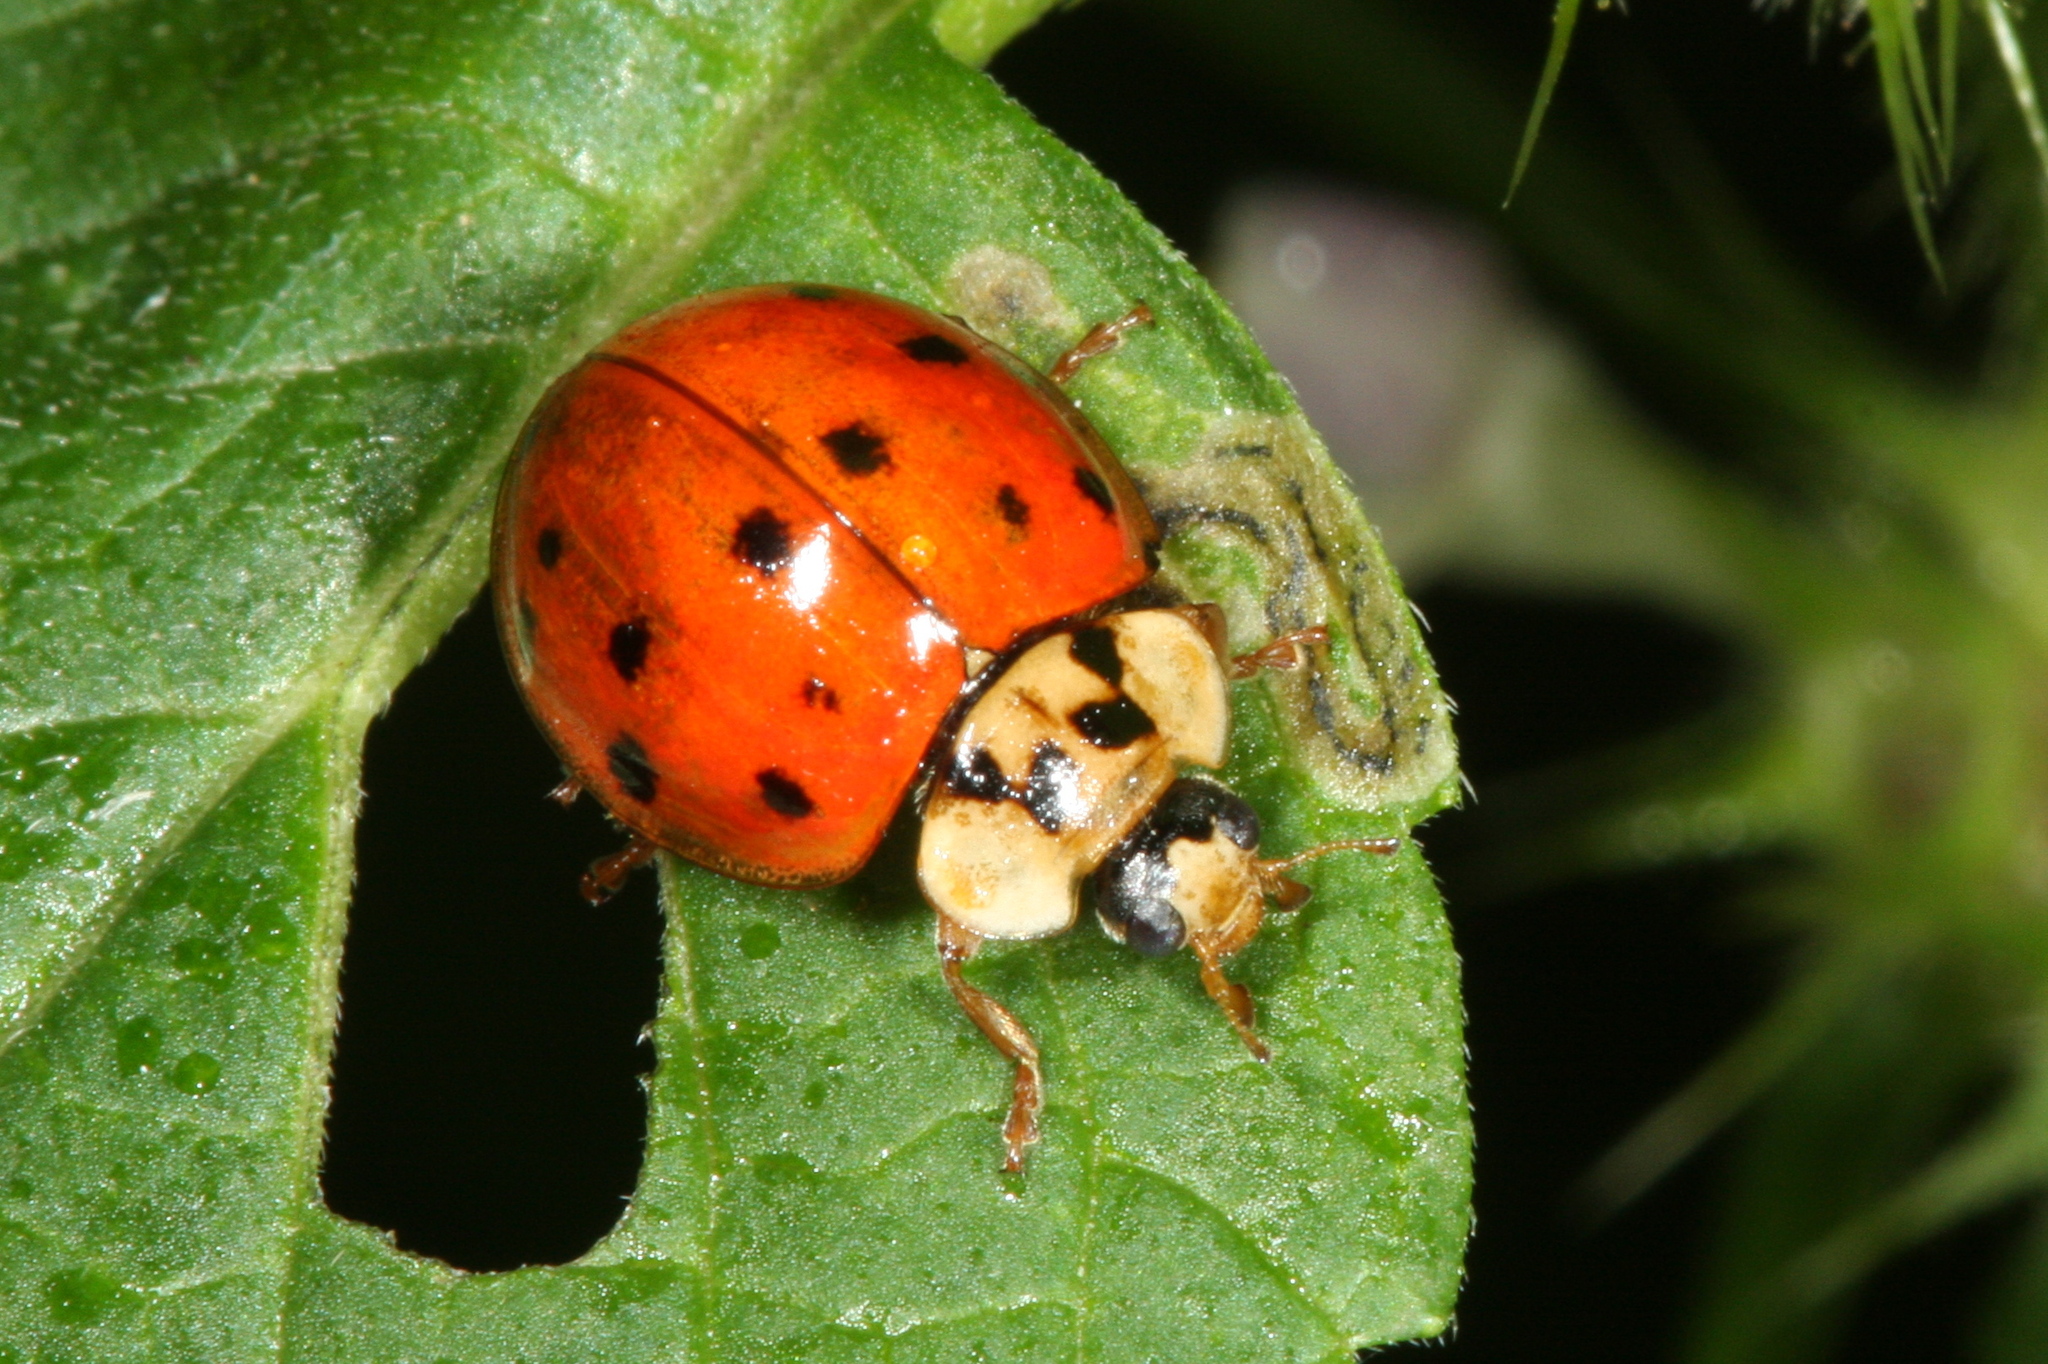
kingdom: Animalia
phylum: Arthropoda
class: Insecta
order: Coleoptera
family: Coccinellidae
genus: Harmonia
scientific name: Harmonia axyridis
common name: Harlequin ladybird
